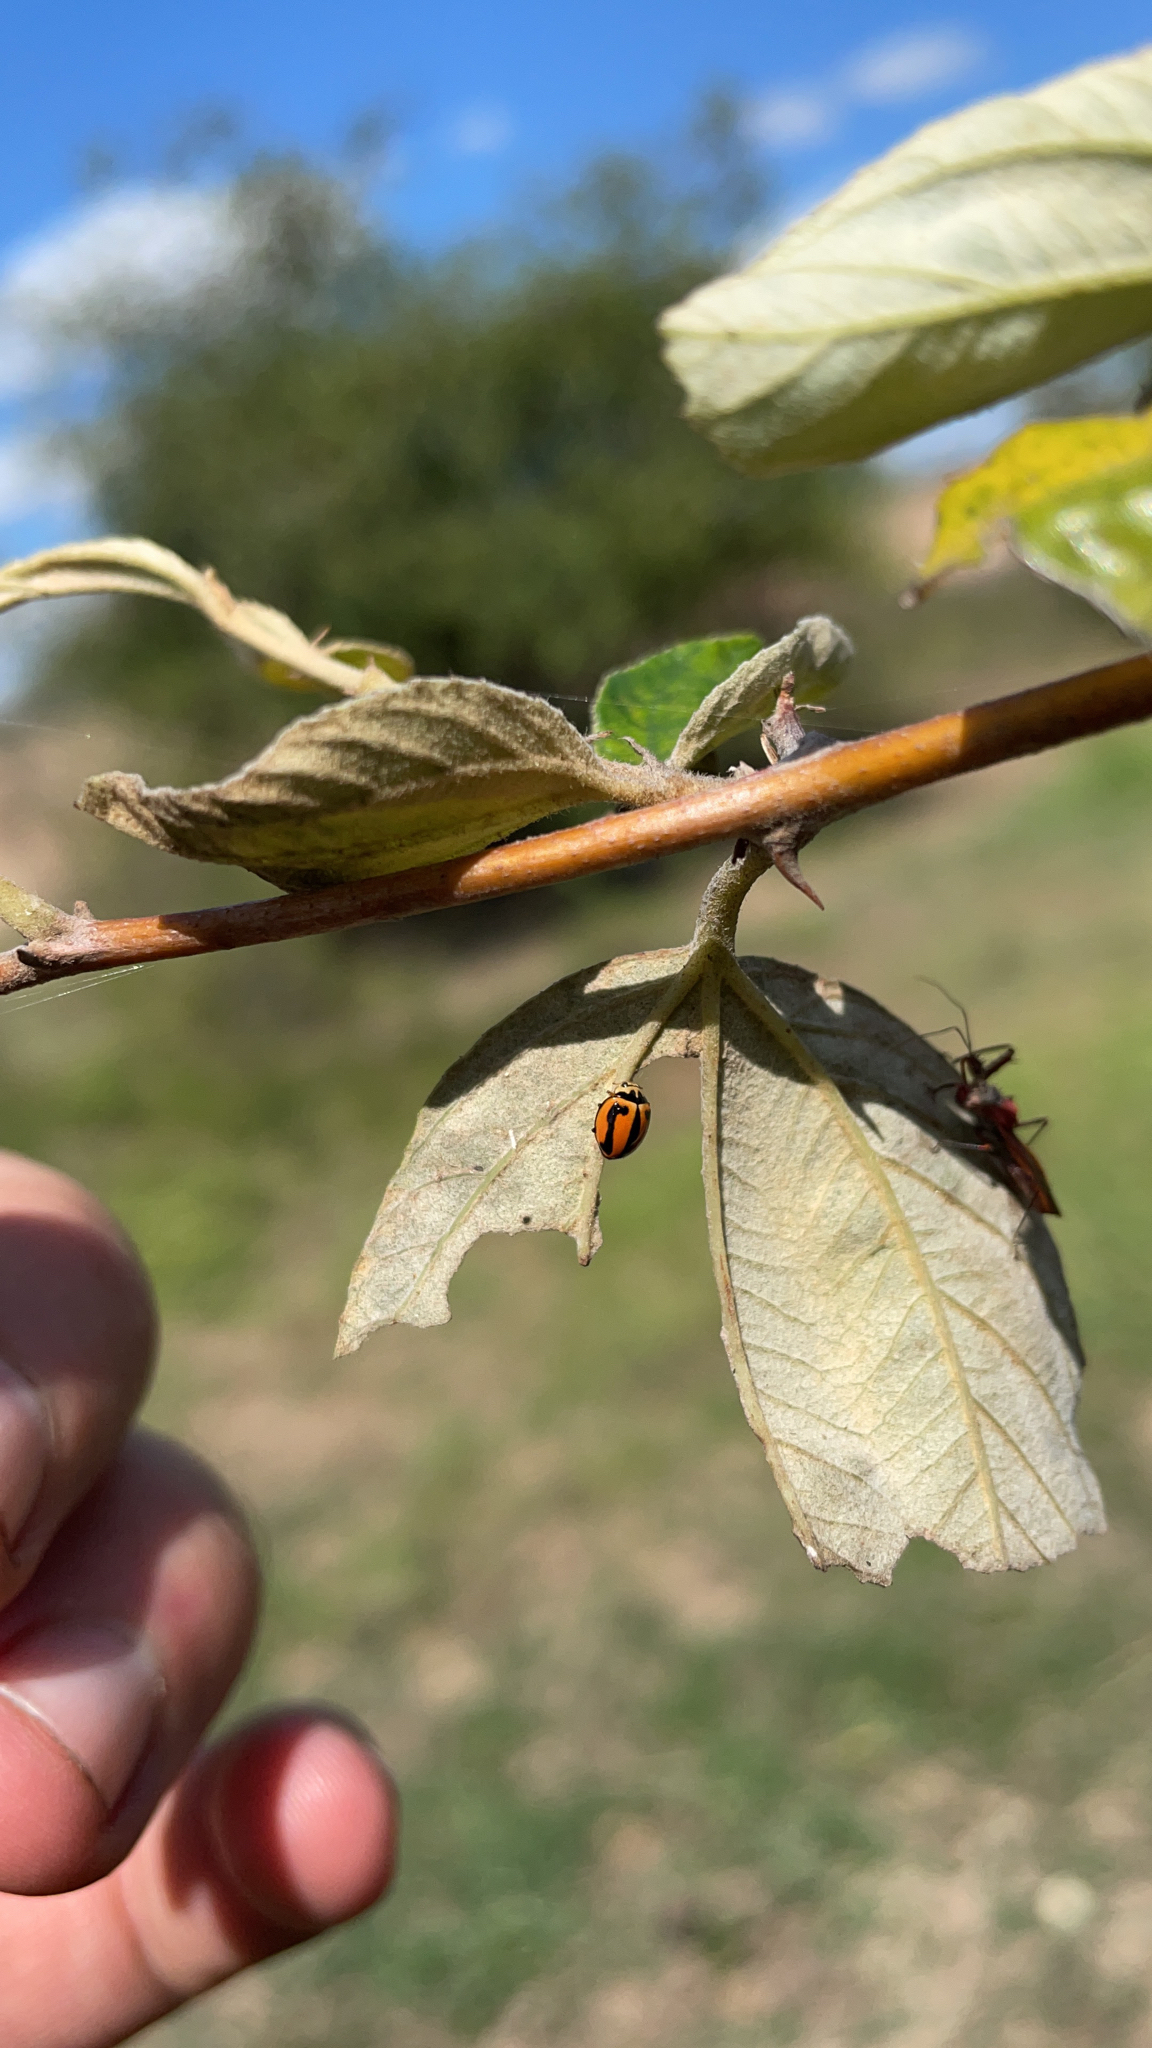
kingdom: Animalia
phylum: Arthropoda
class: Insecta
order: Coleoptera
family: Coccinellidae
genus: Micraspis
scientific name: Micraspis frenata
